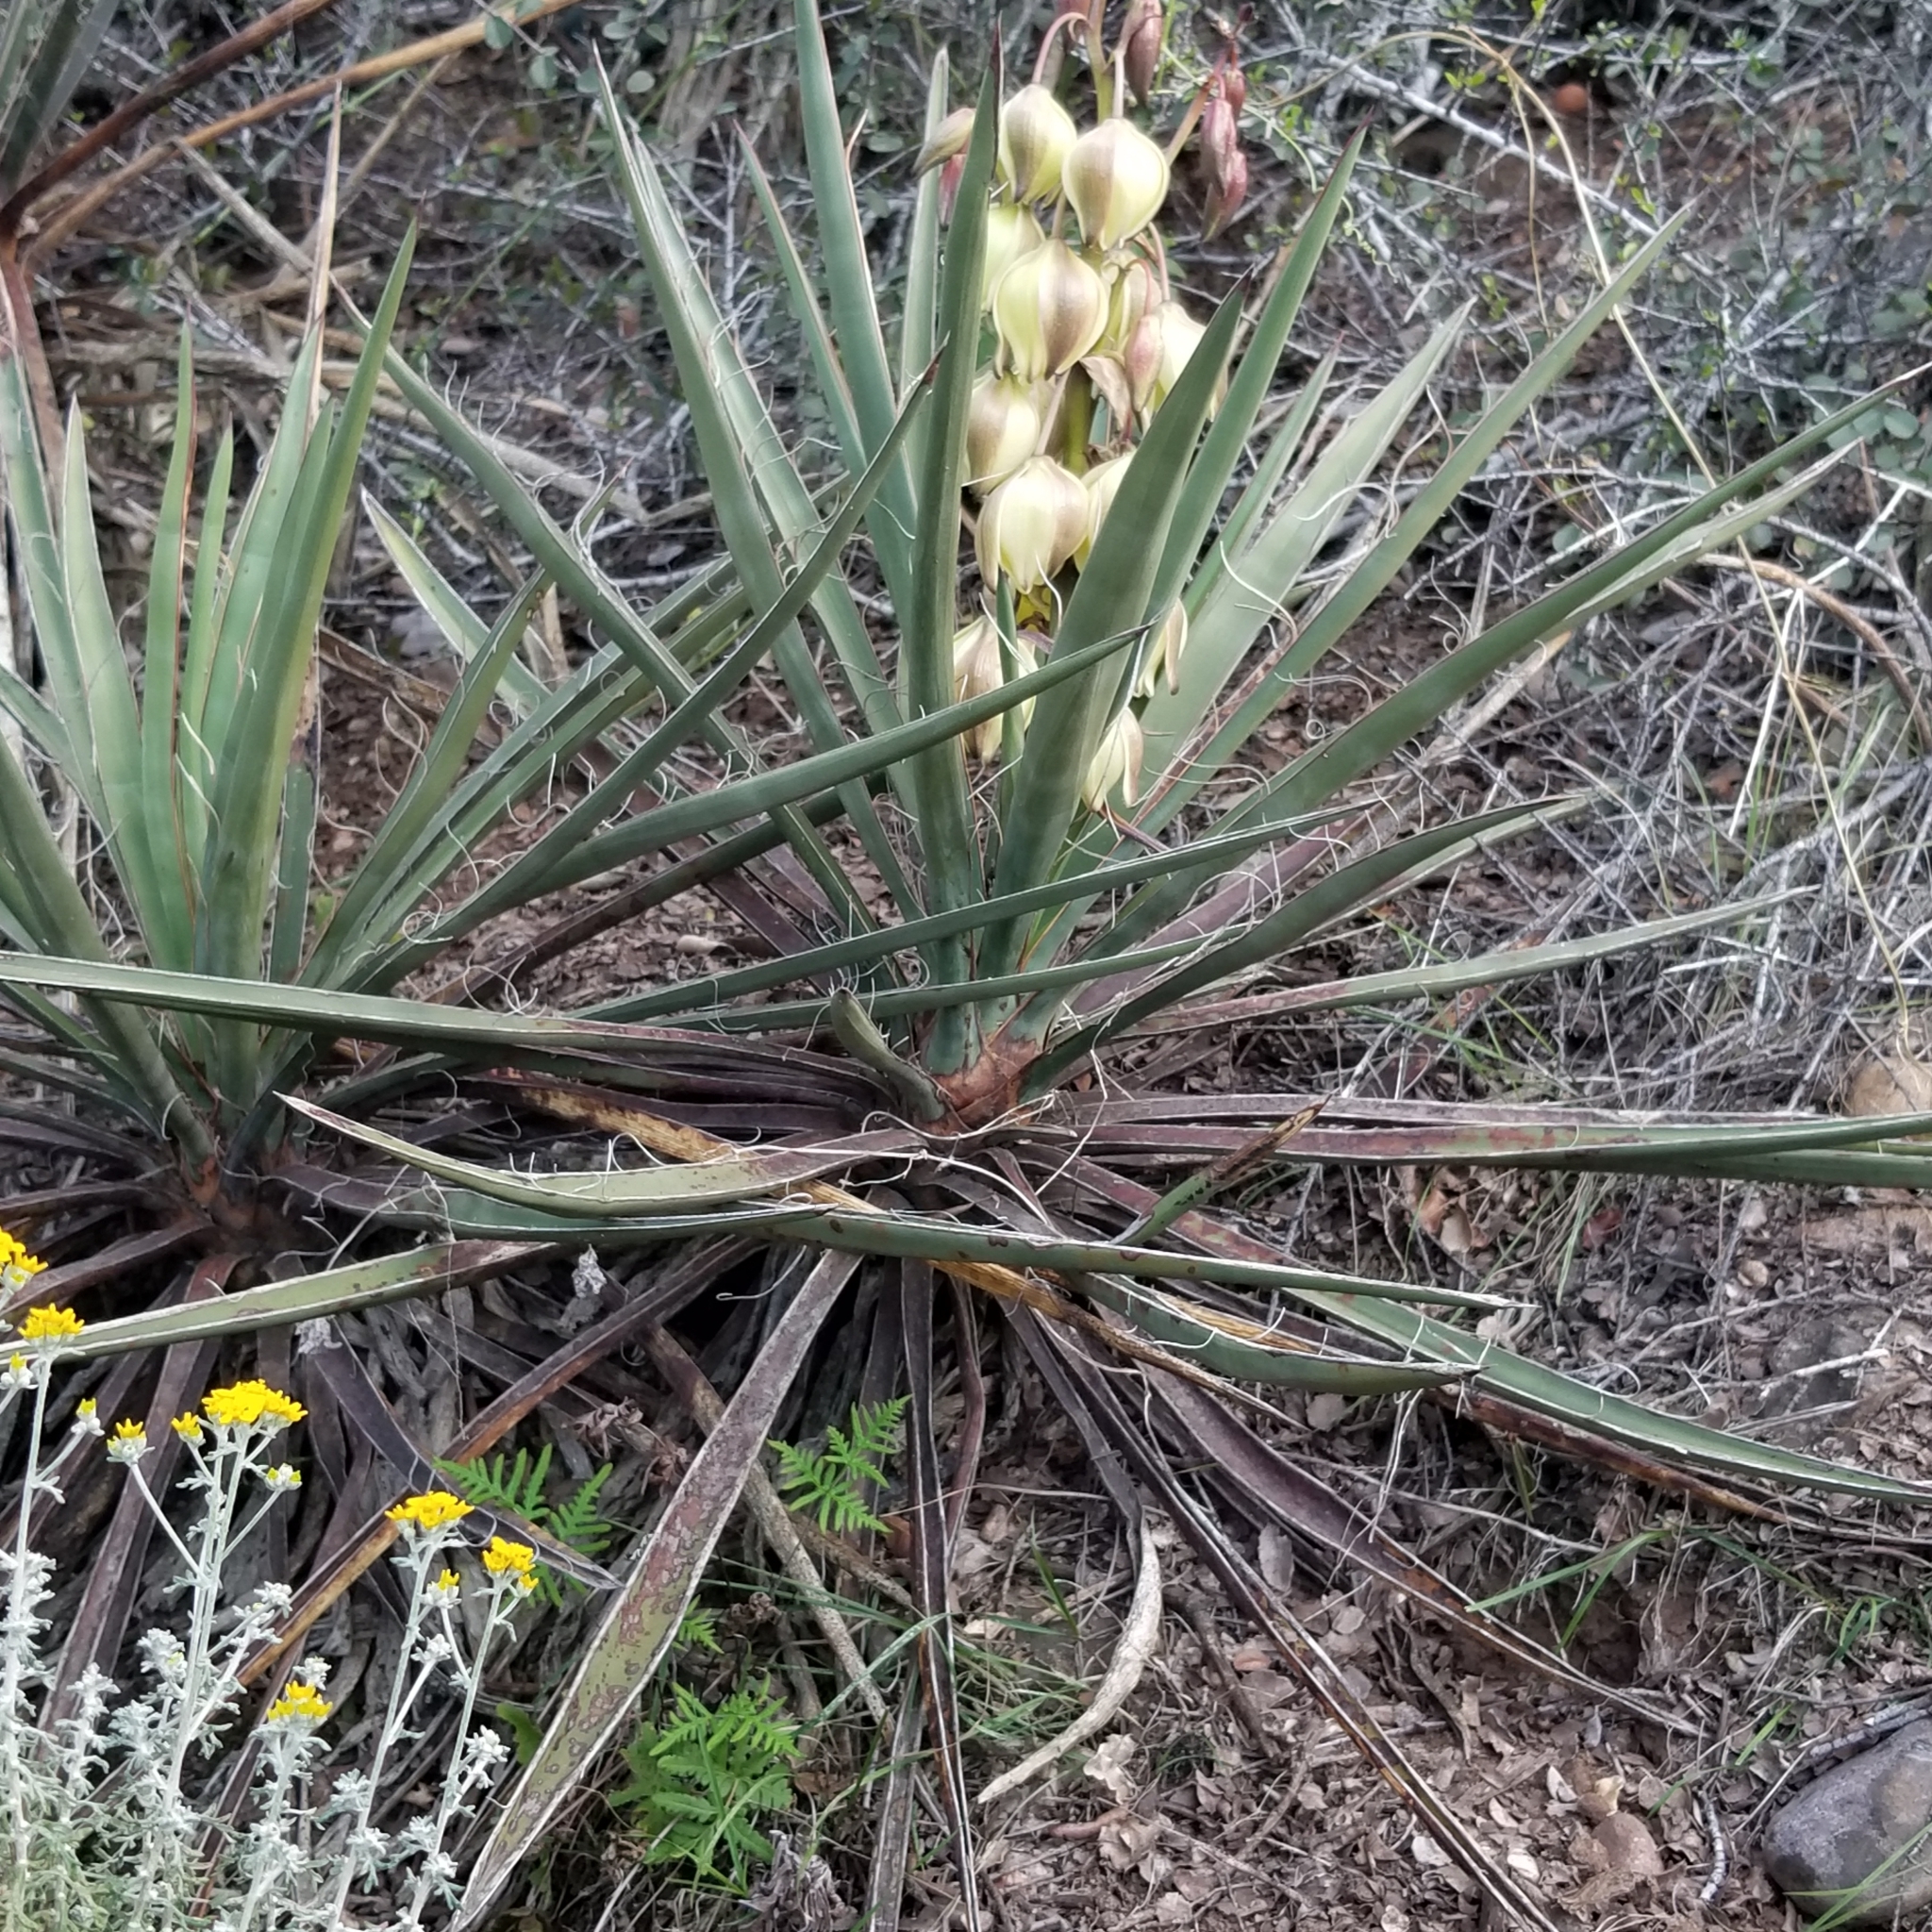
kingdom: Plantae
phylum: Tracheophyta
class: Liliopsida
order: Asparagales
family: Asparagaceae
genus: Yucca
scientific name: Yucca schidigera
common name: Mojave yucca
